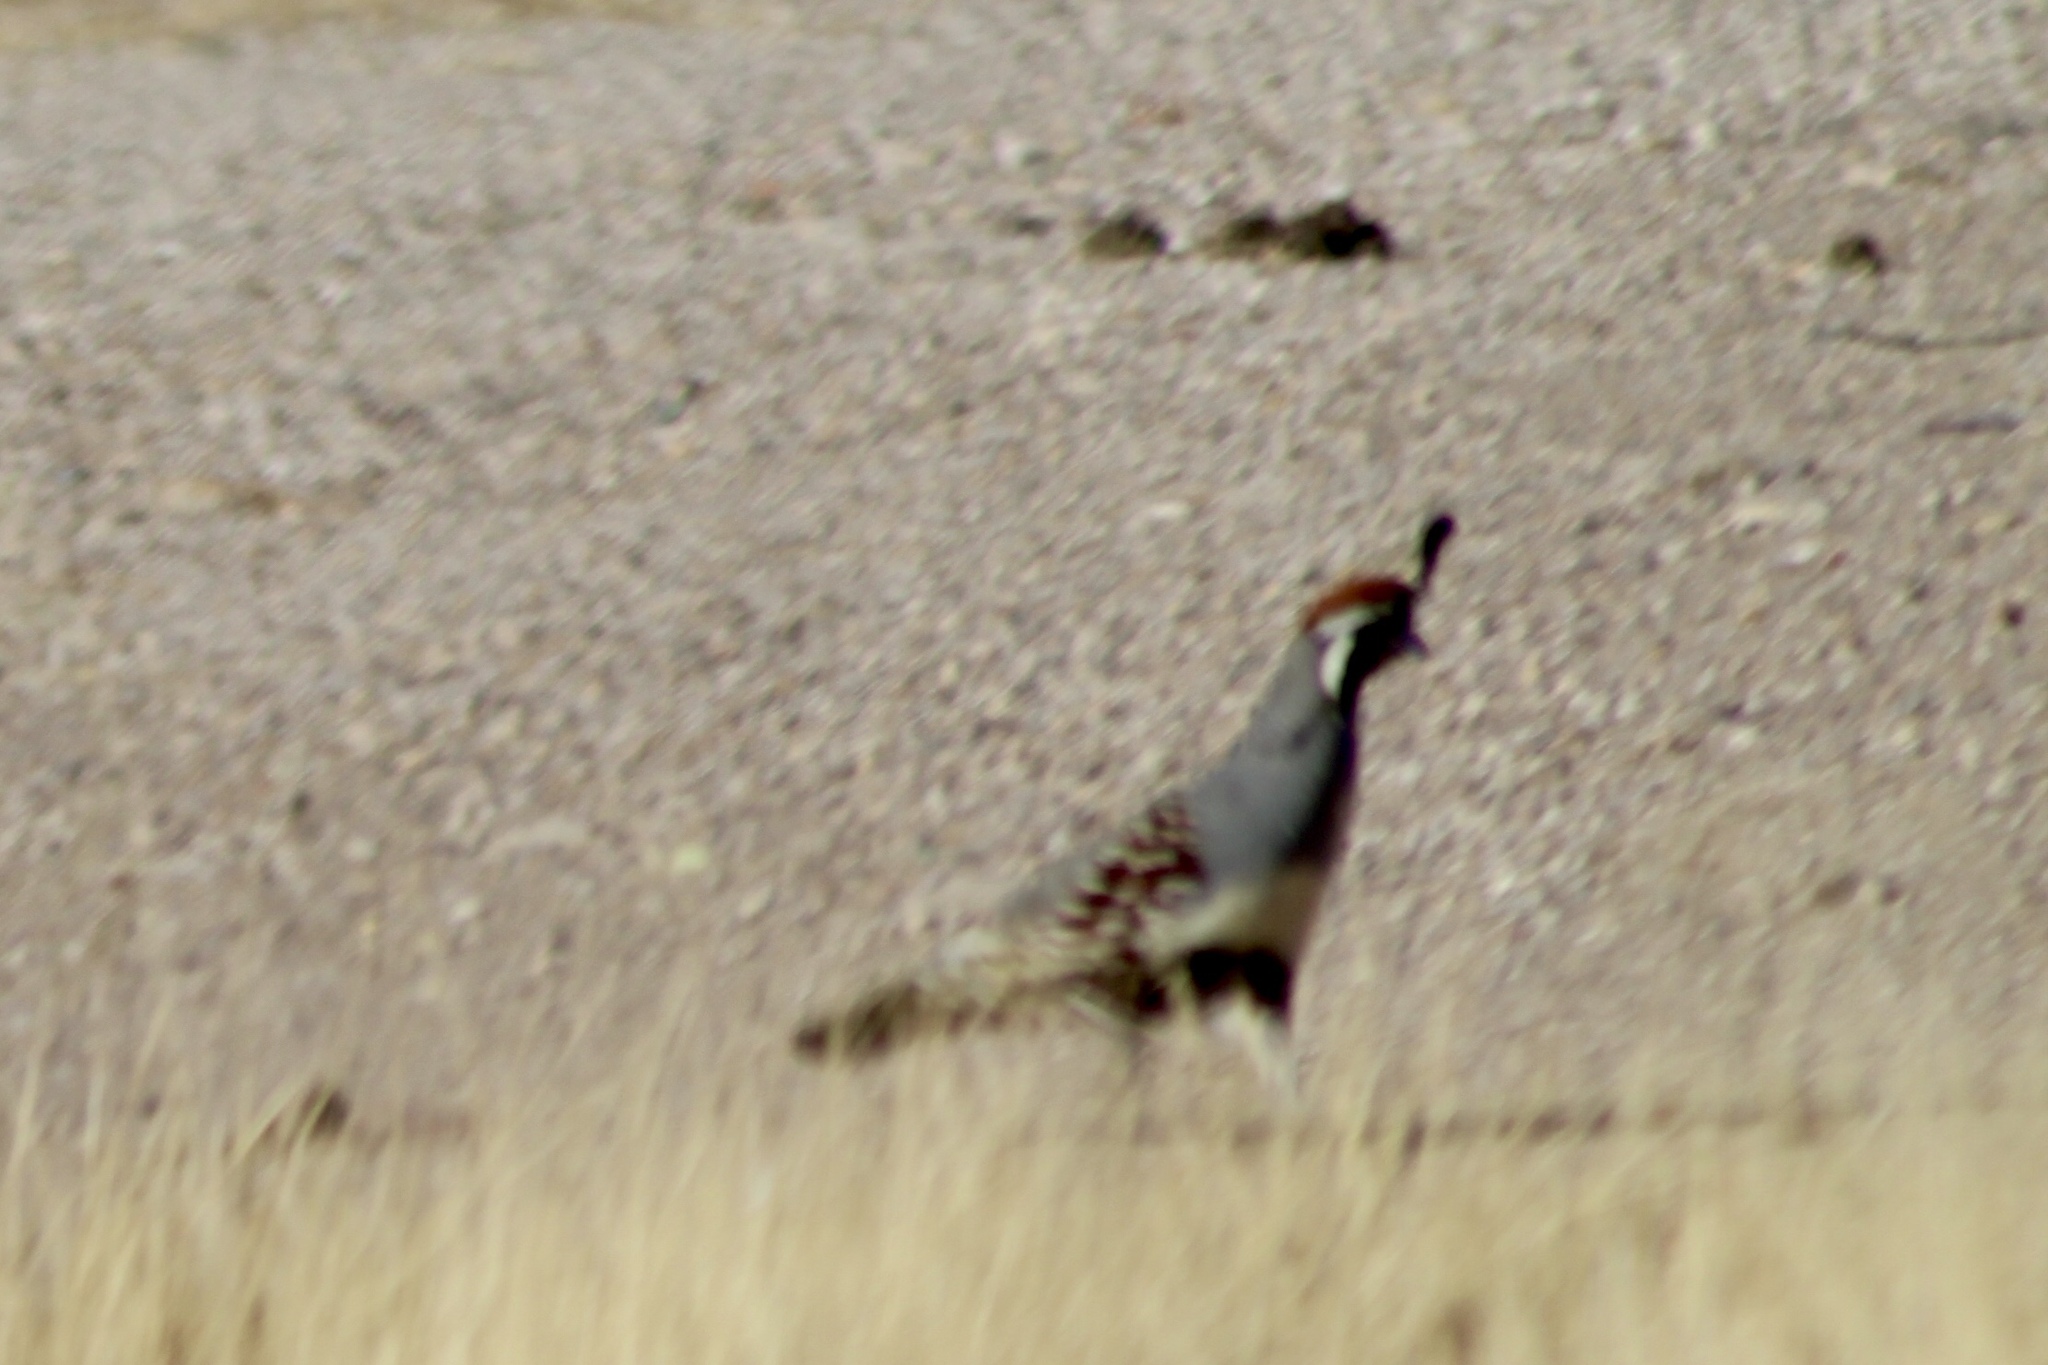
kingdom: Animalia
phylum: Chordata
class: Aves
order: Galliformes
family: Odontophoridae
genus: Callipepla
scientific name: Callipepla gambelii
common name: Gambel's quail
